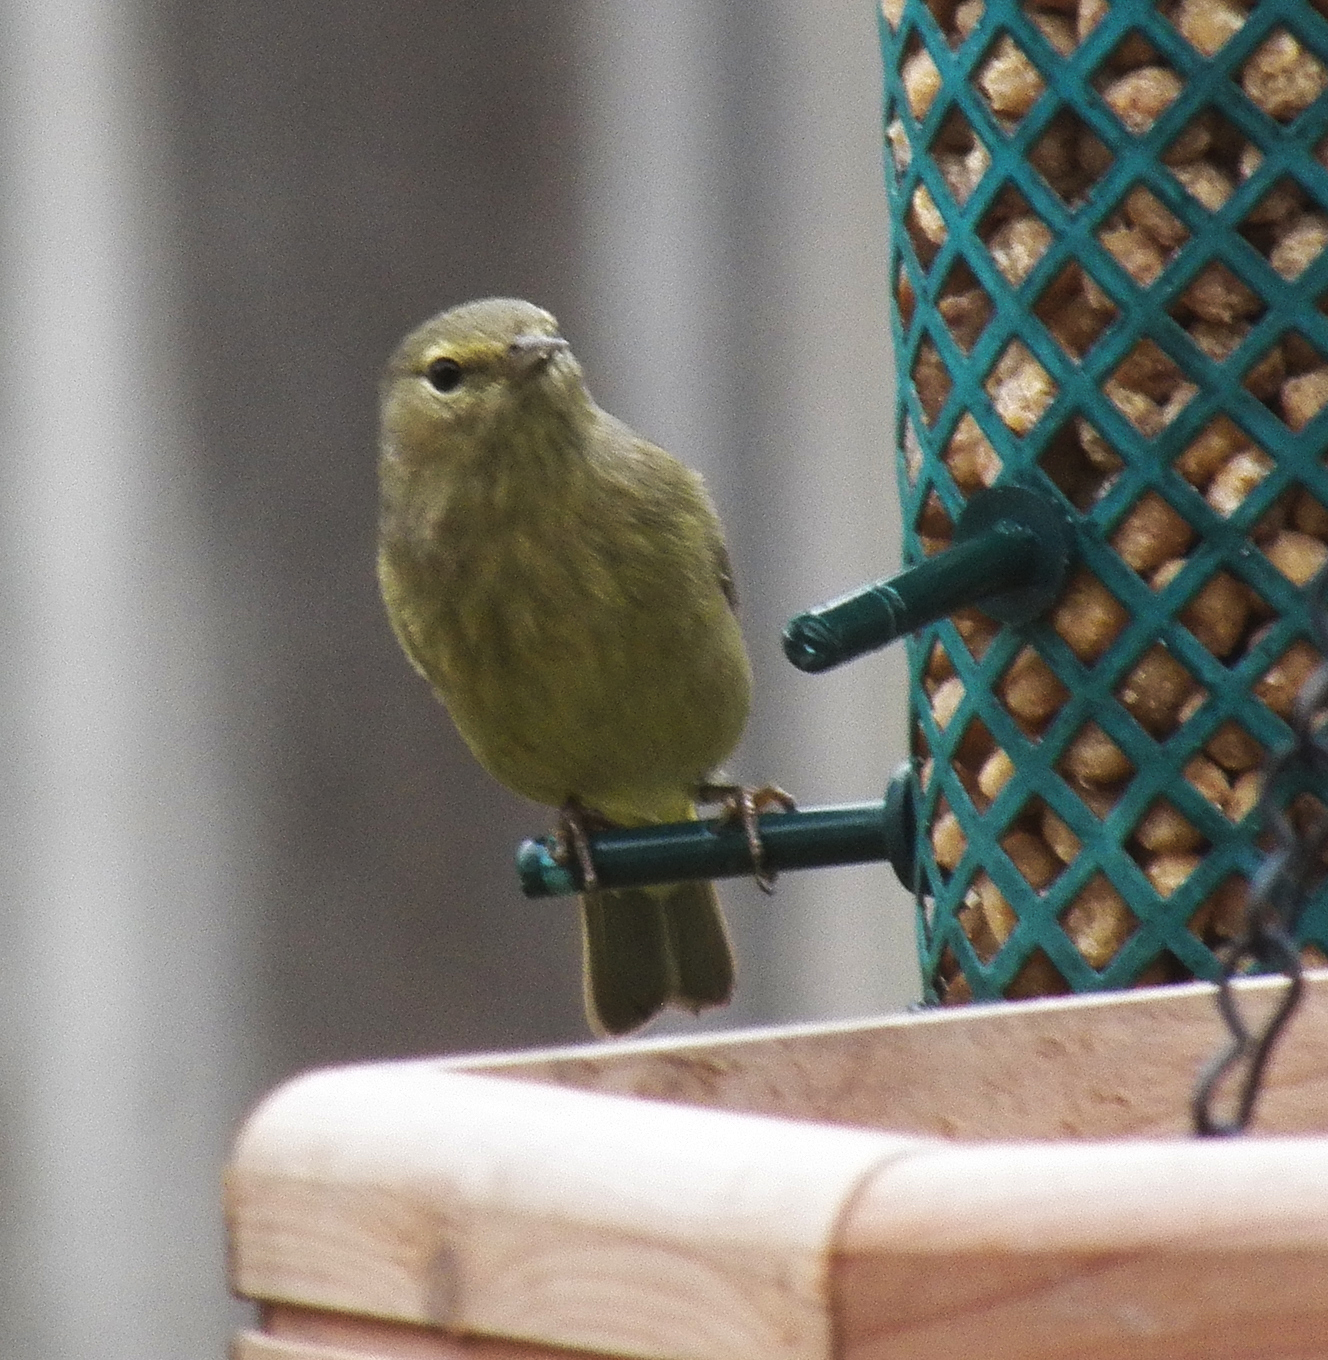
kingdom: Animalia
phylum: Chordata
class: Aves
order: Passeriformes
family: Parulidae
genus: Leiothlypis
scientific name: Leiothlypis celata
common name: Orange-crowned warbler
